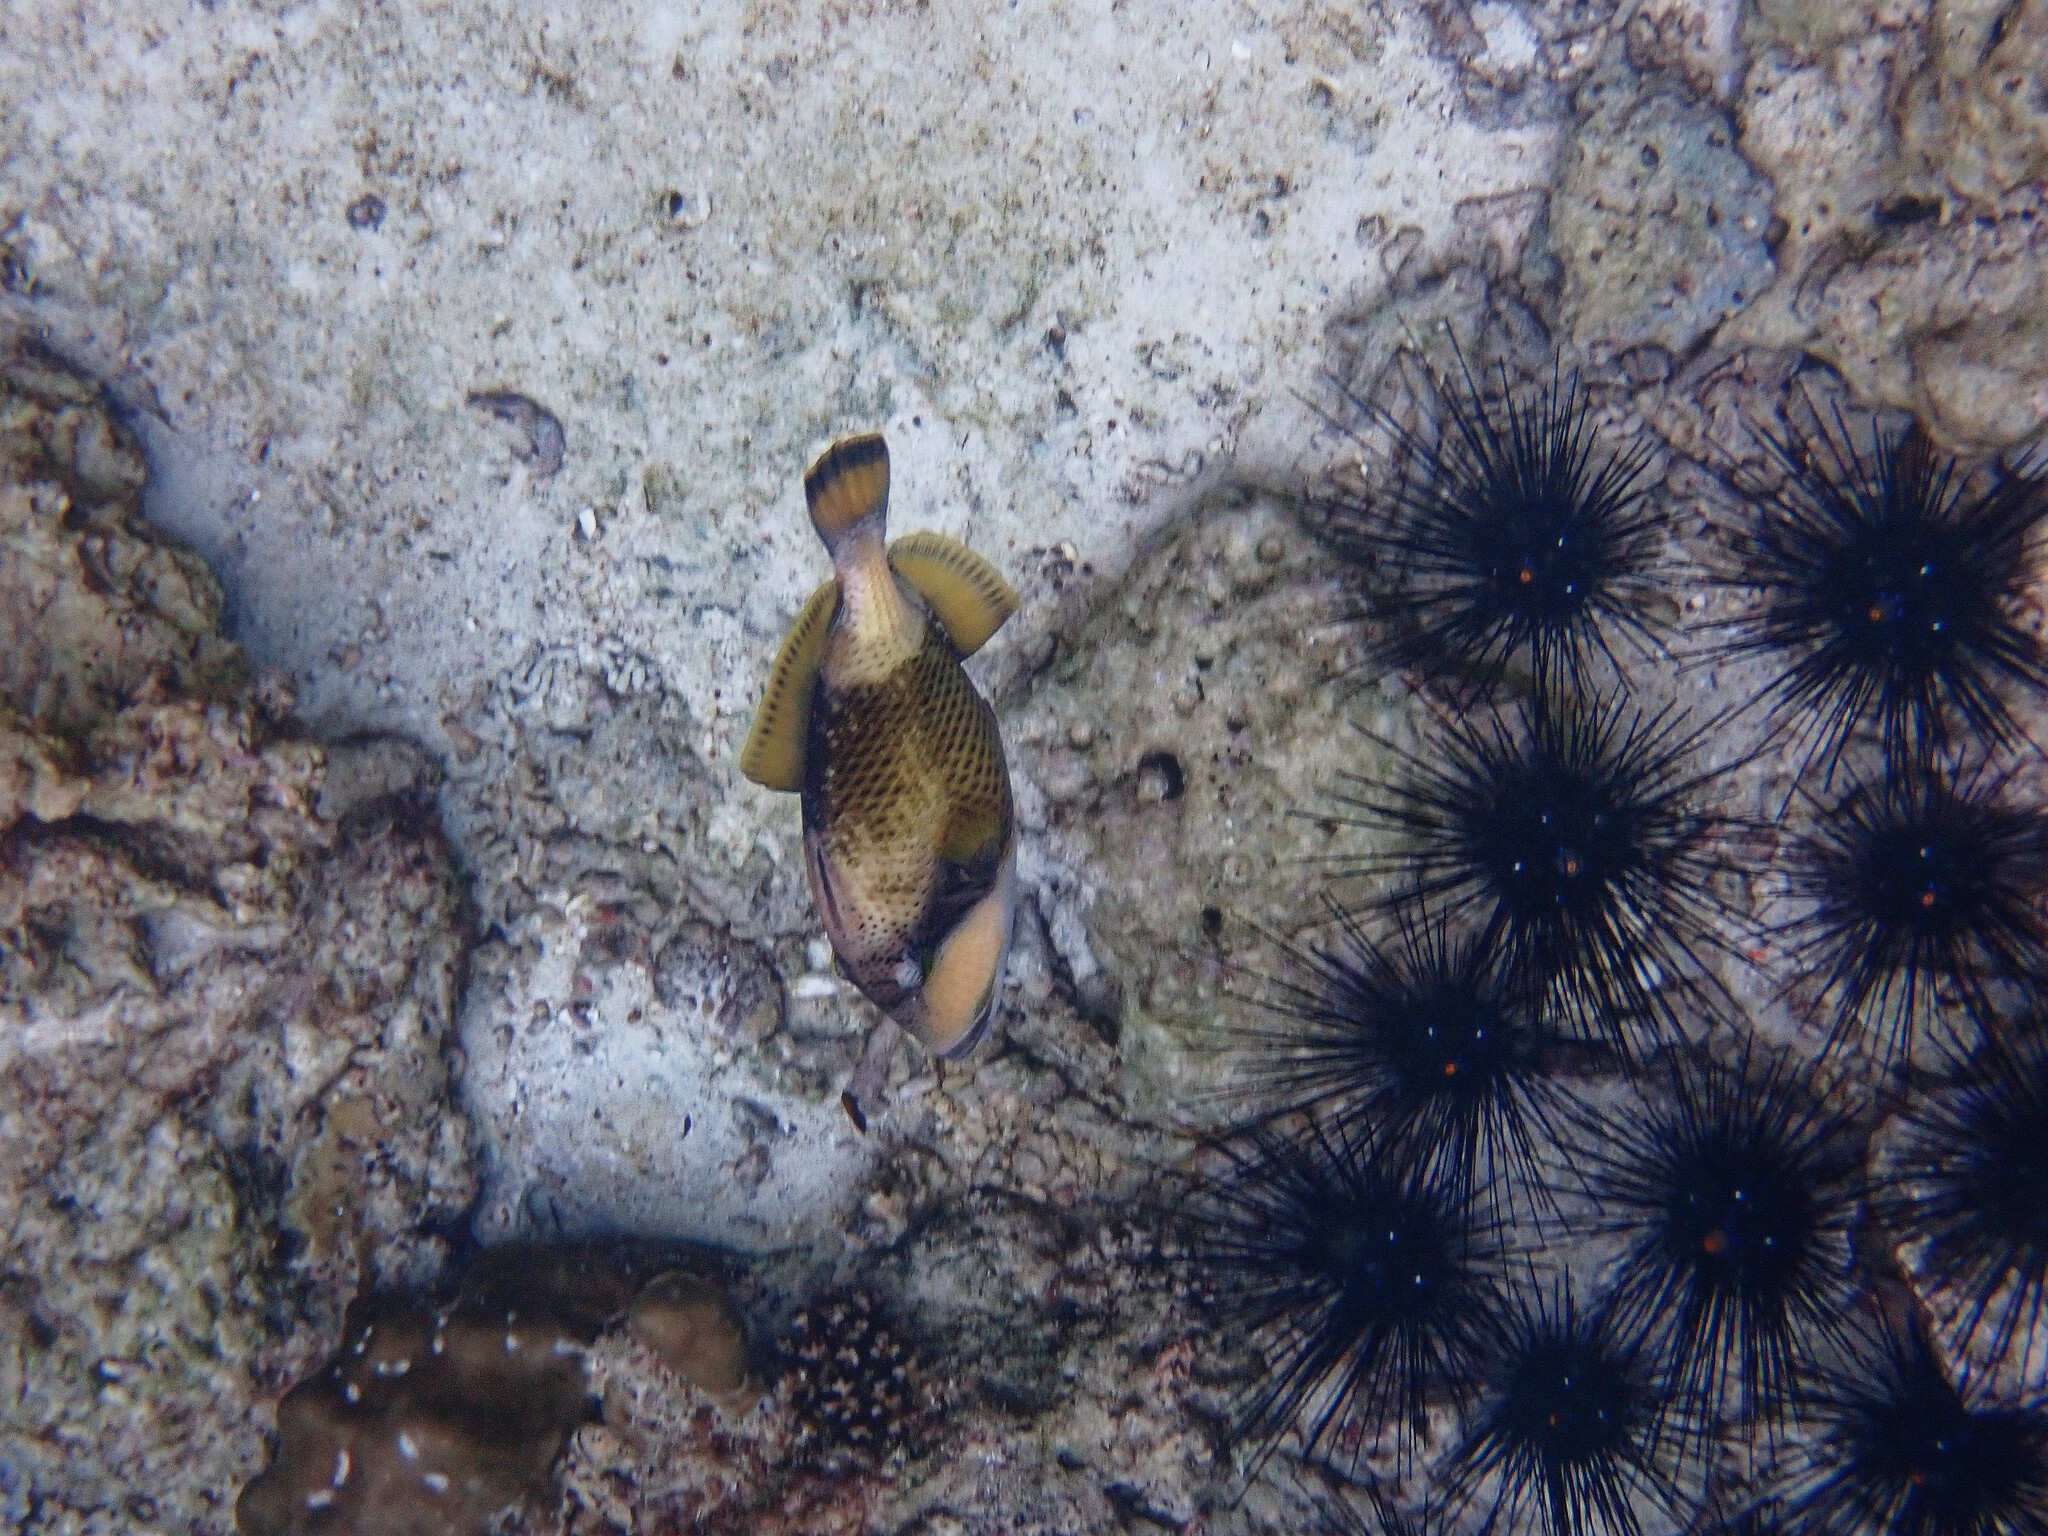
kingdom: Animalia
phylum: Chordata
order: Tetraodontiformes
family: Balistidae
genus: Balistoides
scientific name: Balistoides viridescens
